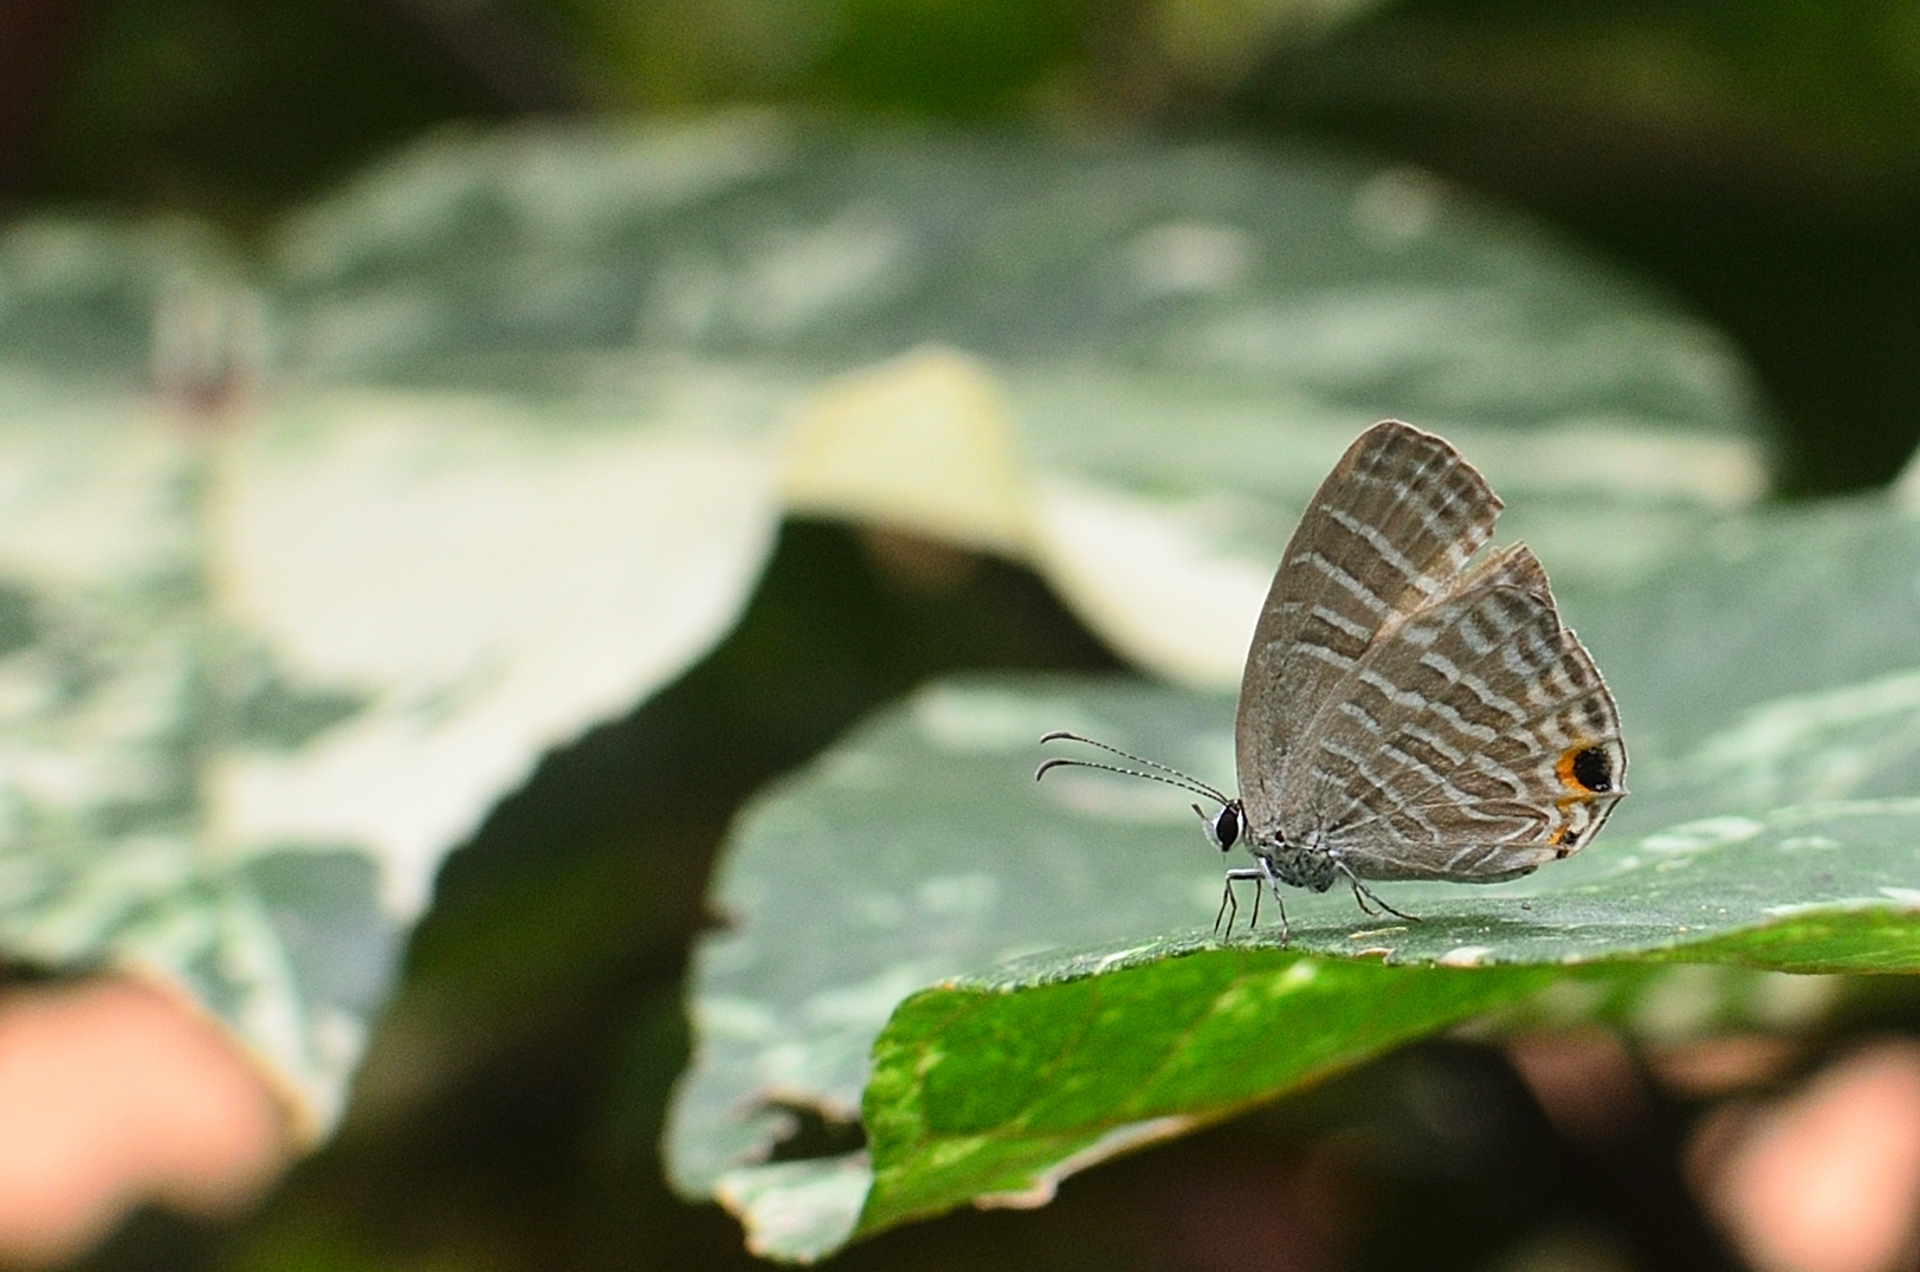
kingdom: Animalia
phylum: Arthropoda
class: Insecta
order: Lepidoptera
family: Lycaenidae
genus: Jamides
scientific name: Jamides celeno
